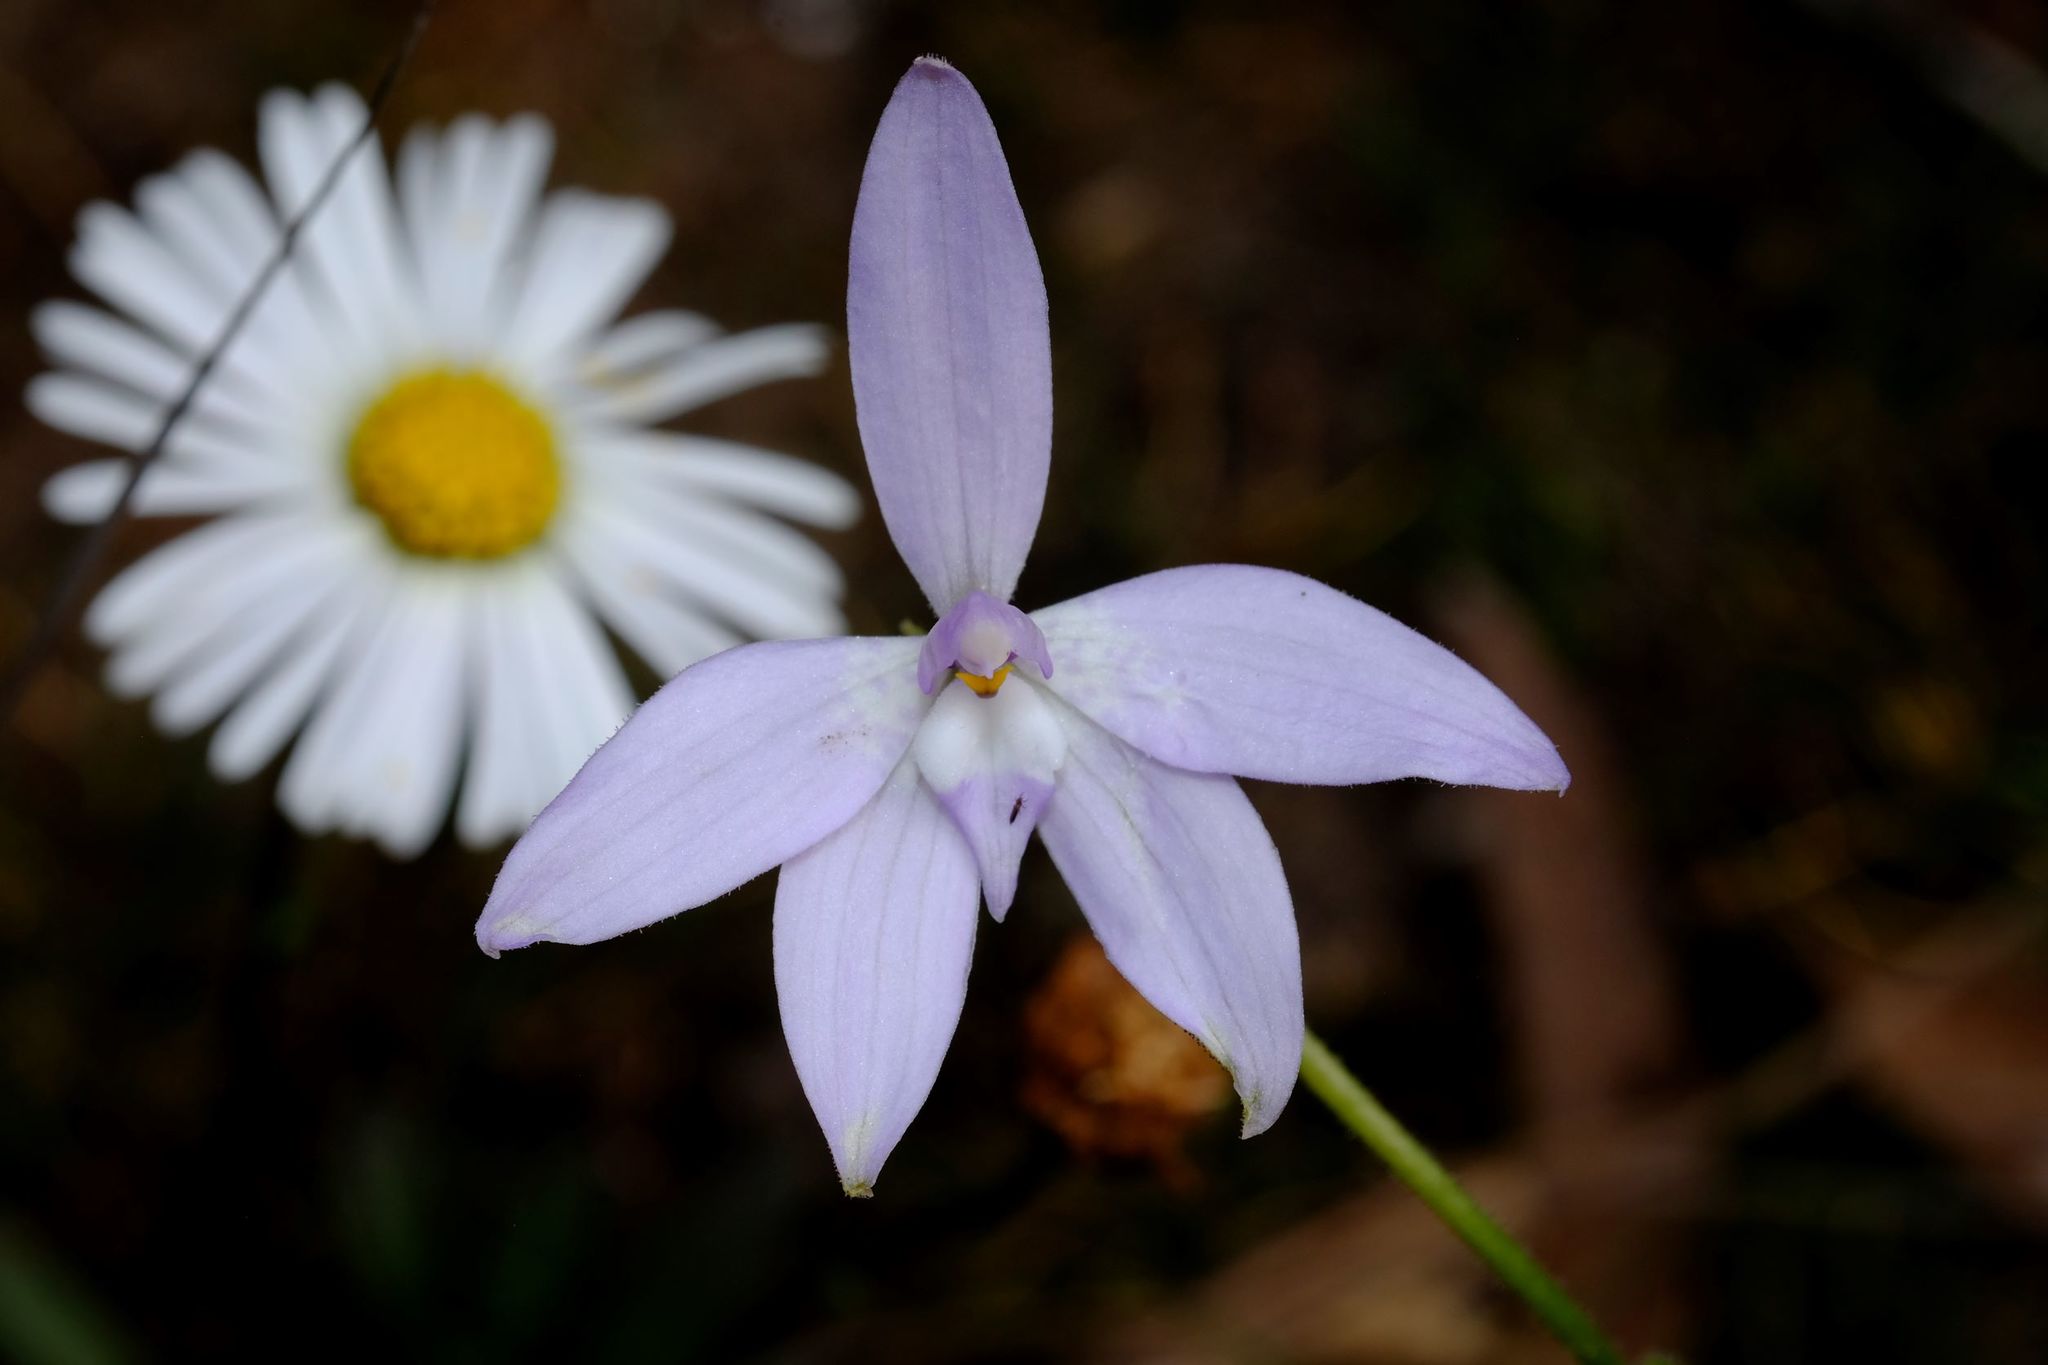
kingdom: Plantae
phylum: Tracheophyta
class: Liliopsida
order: Asparagales
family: Orchidaceae
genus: Caladenia
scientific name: Caladenia major
